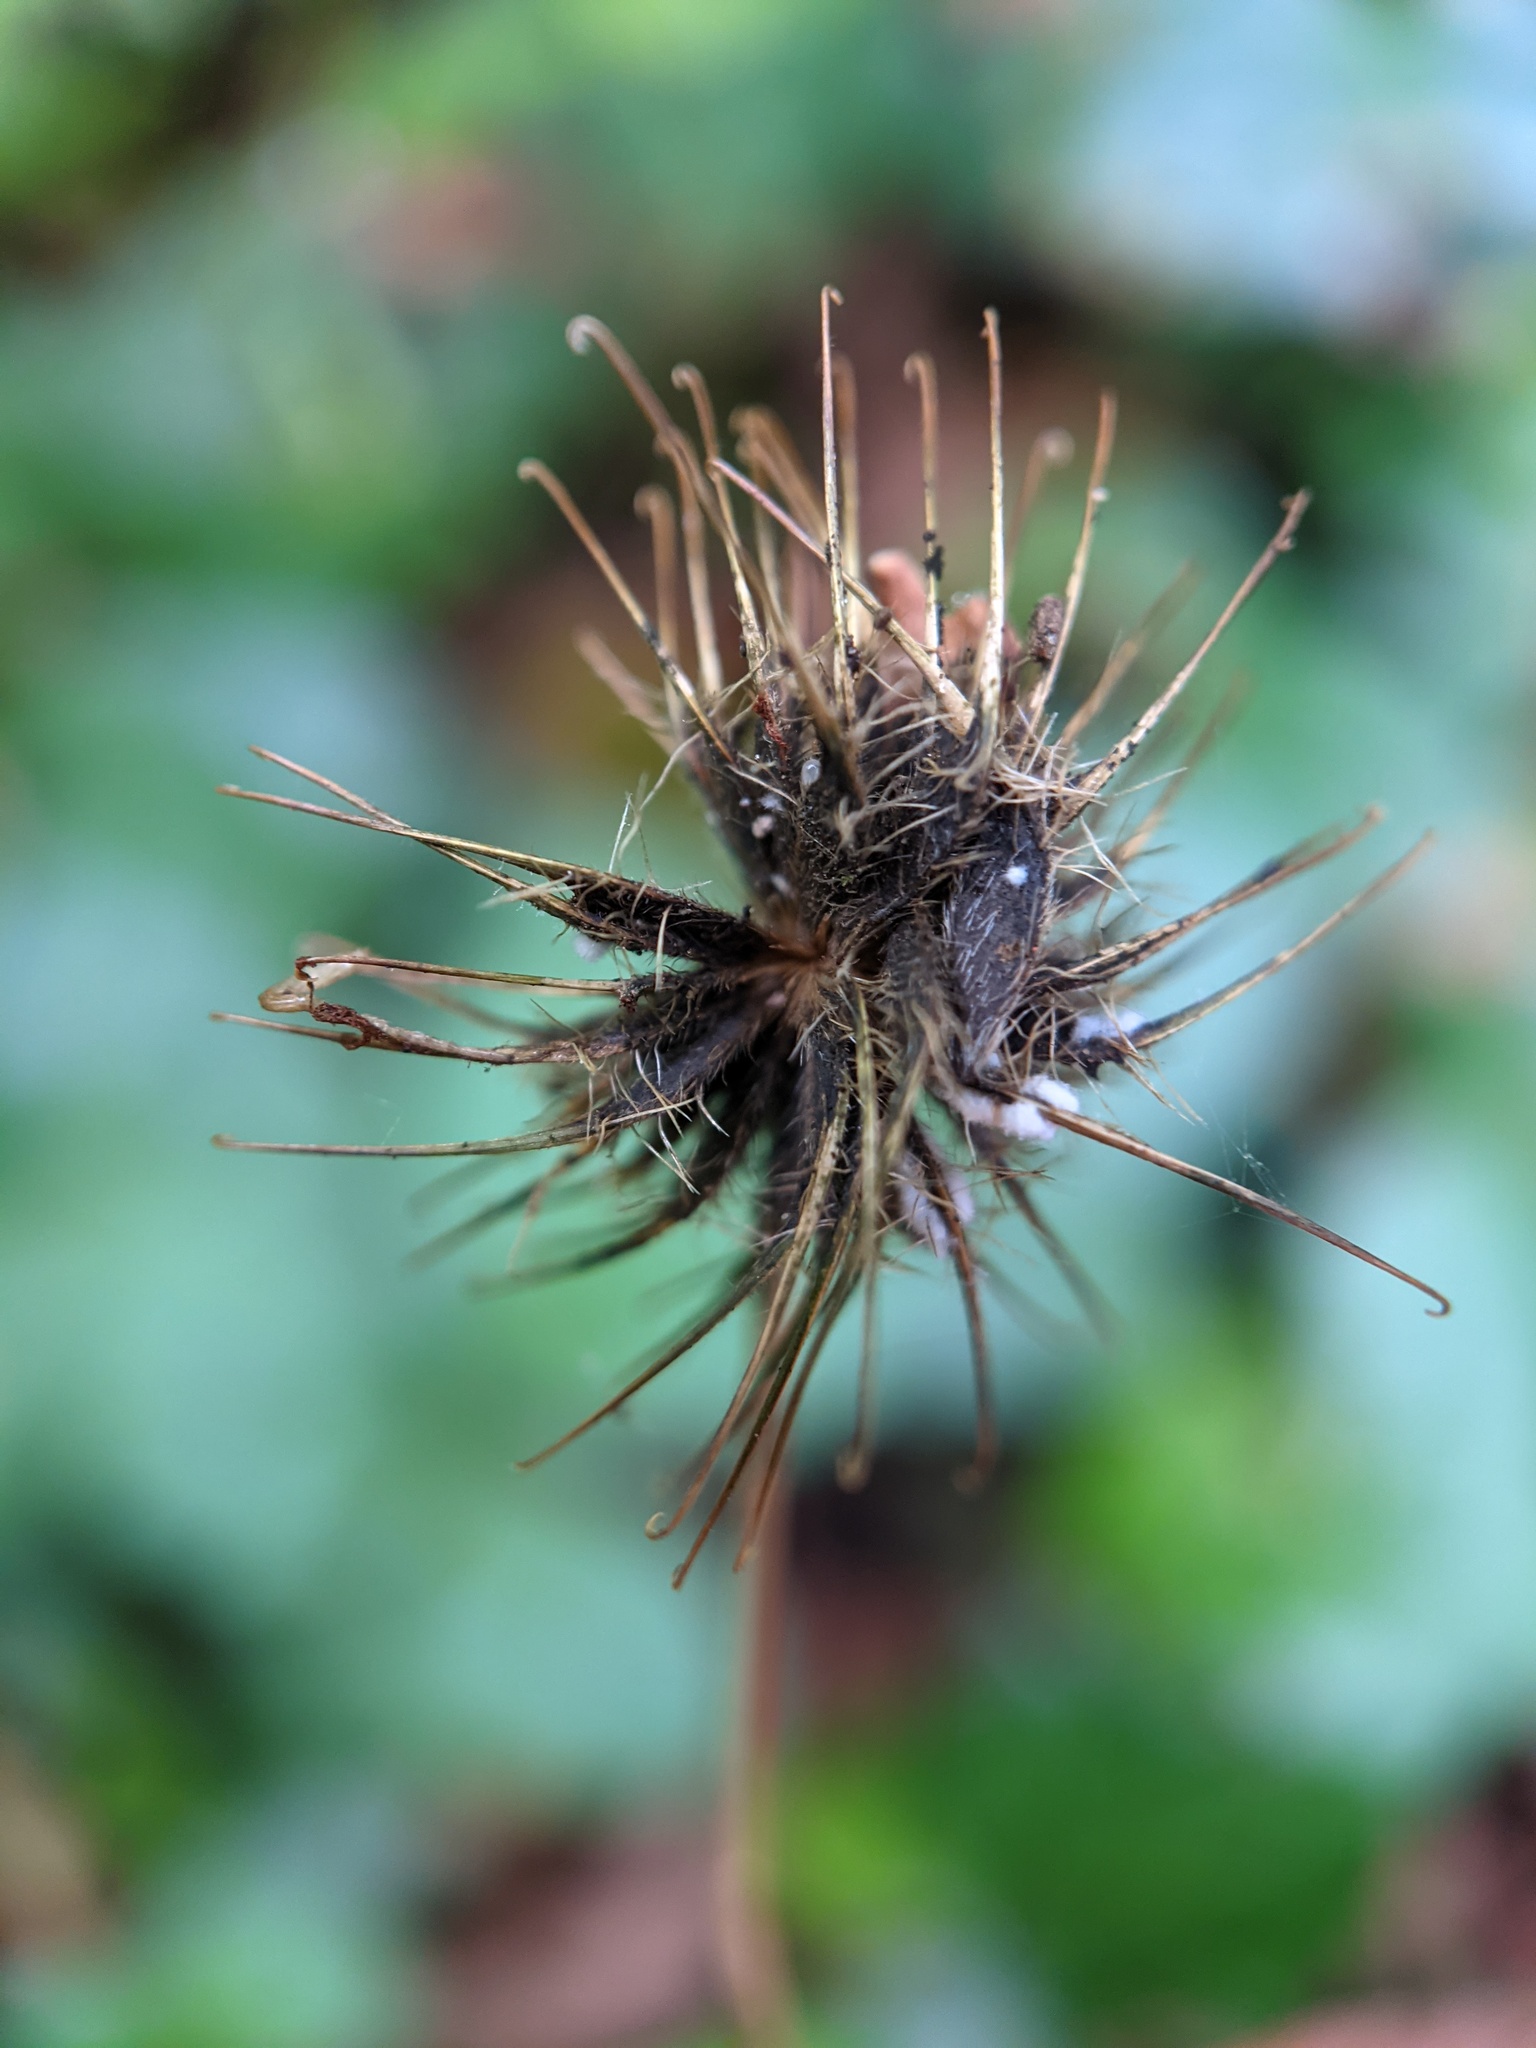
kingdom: Plantae
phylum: Tracheophyta
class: Magnoliopsida
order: Rosales
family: Rosaceae
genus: Geum
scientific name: Geum urbanum
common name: Wood avens
